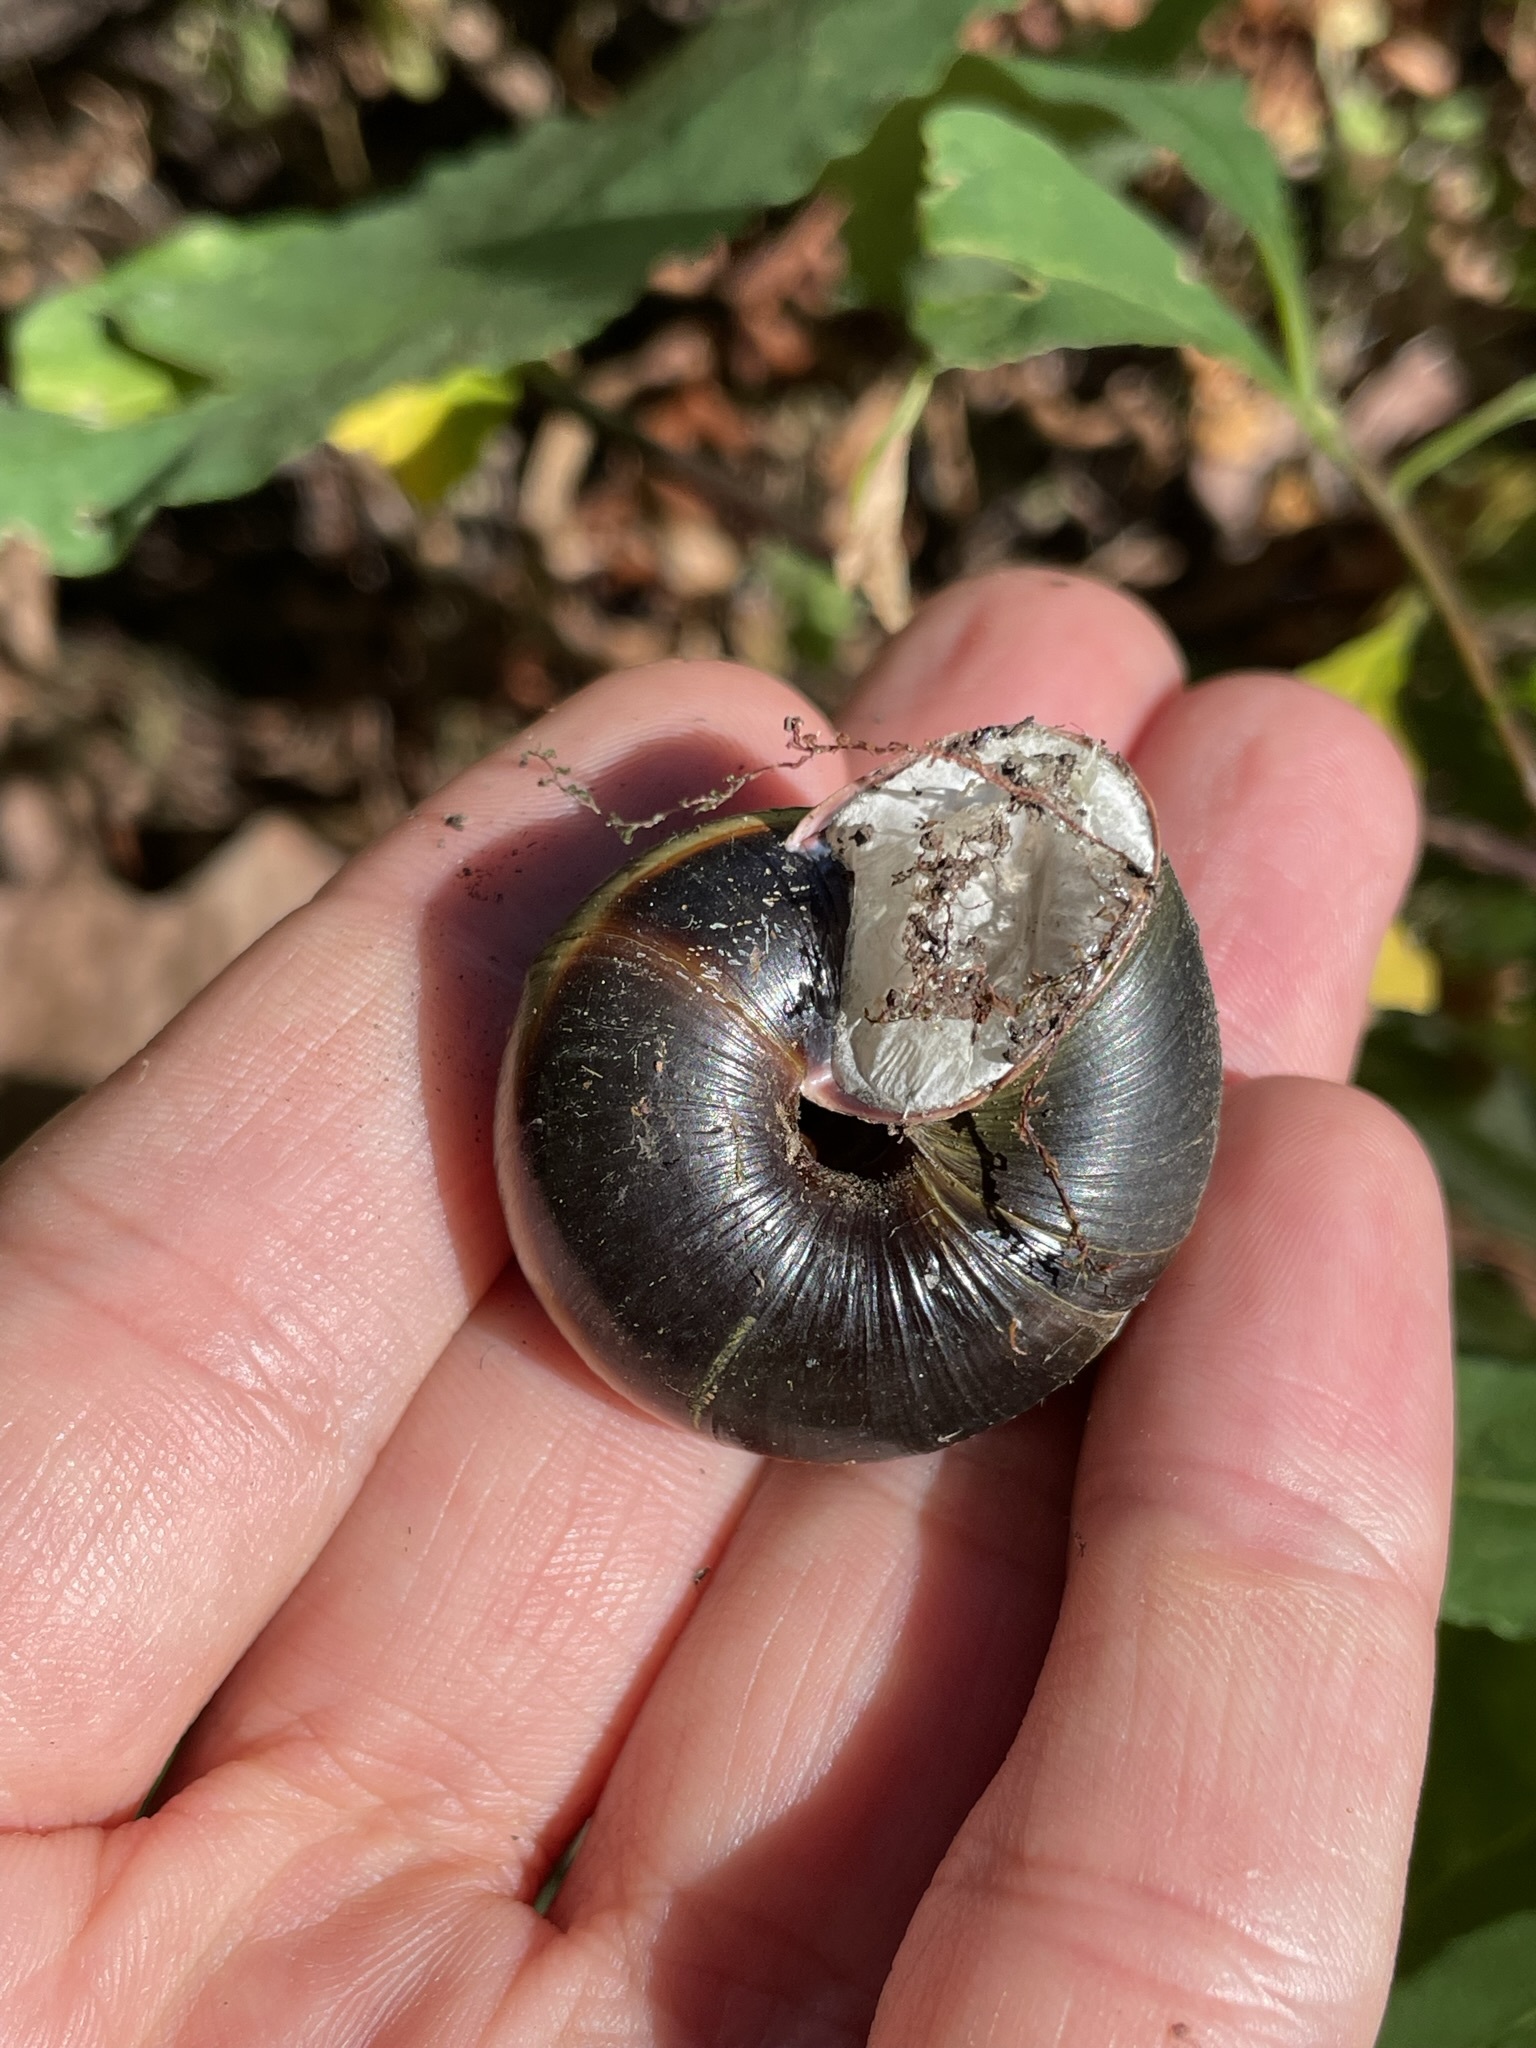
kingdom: Animalia
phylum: Mollusca
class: Gastropoda
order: Stylommatophora
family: Xanthonychidae
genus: Monadenia
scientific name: Monadenia fidelis
